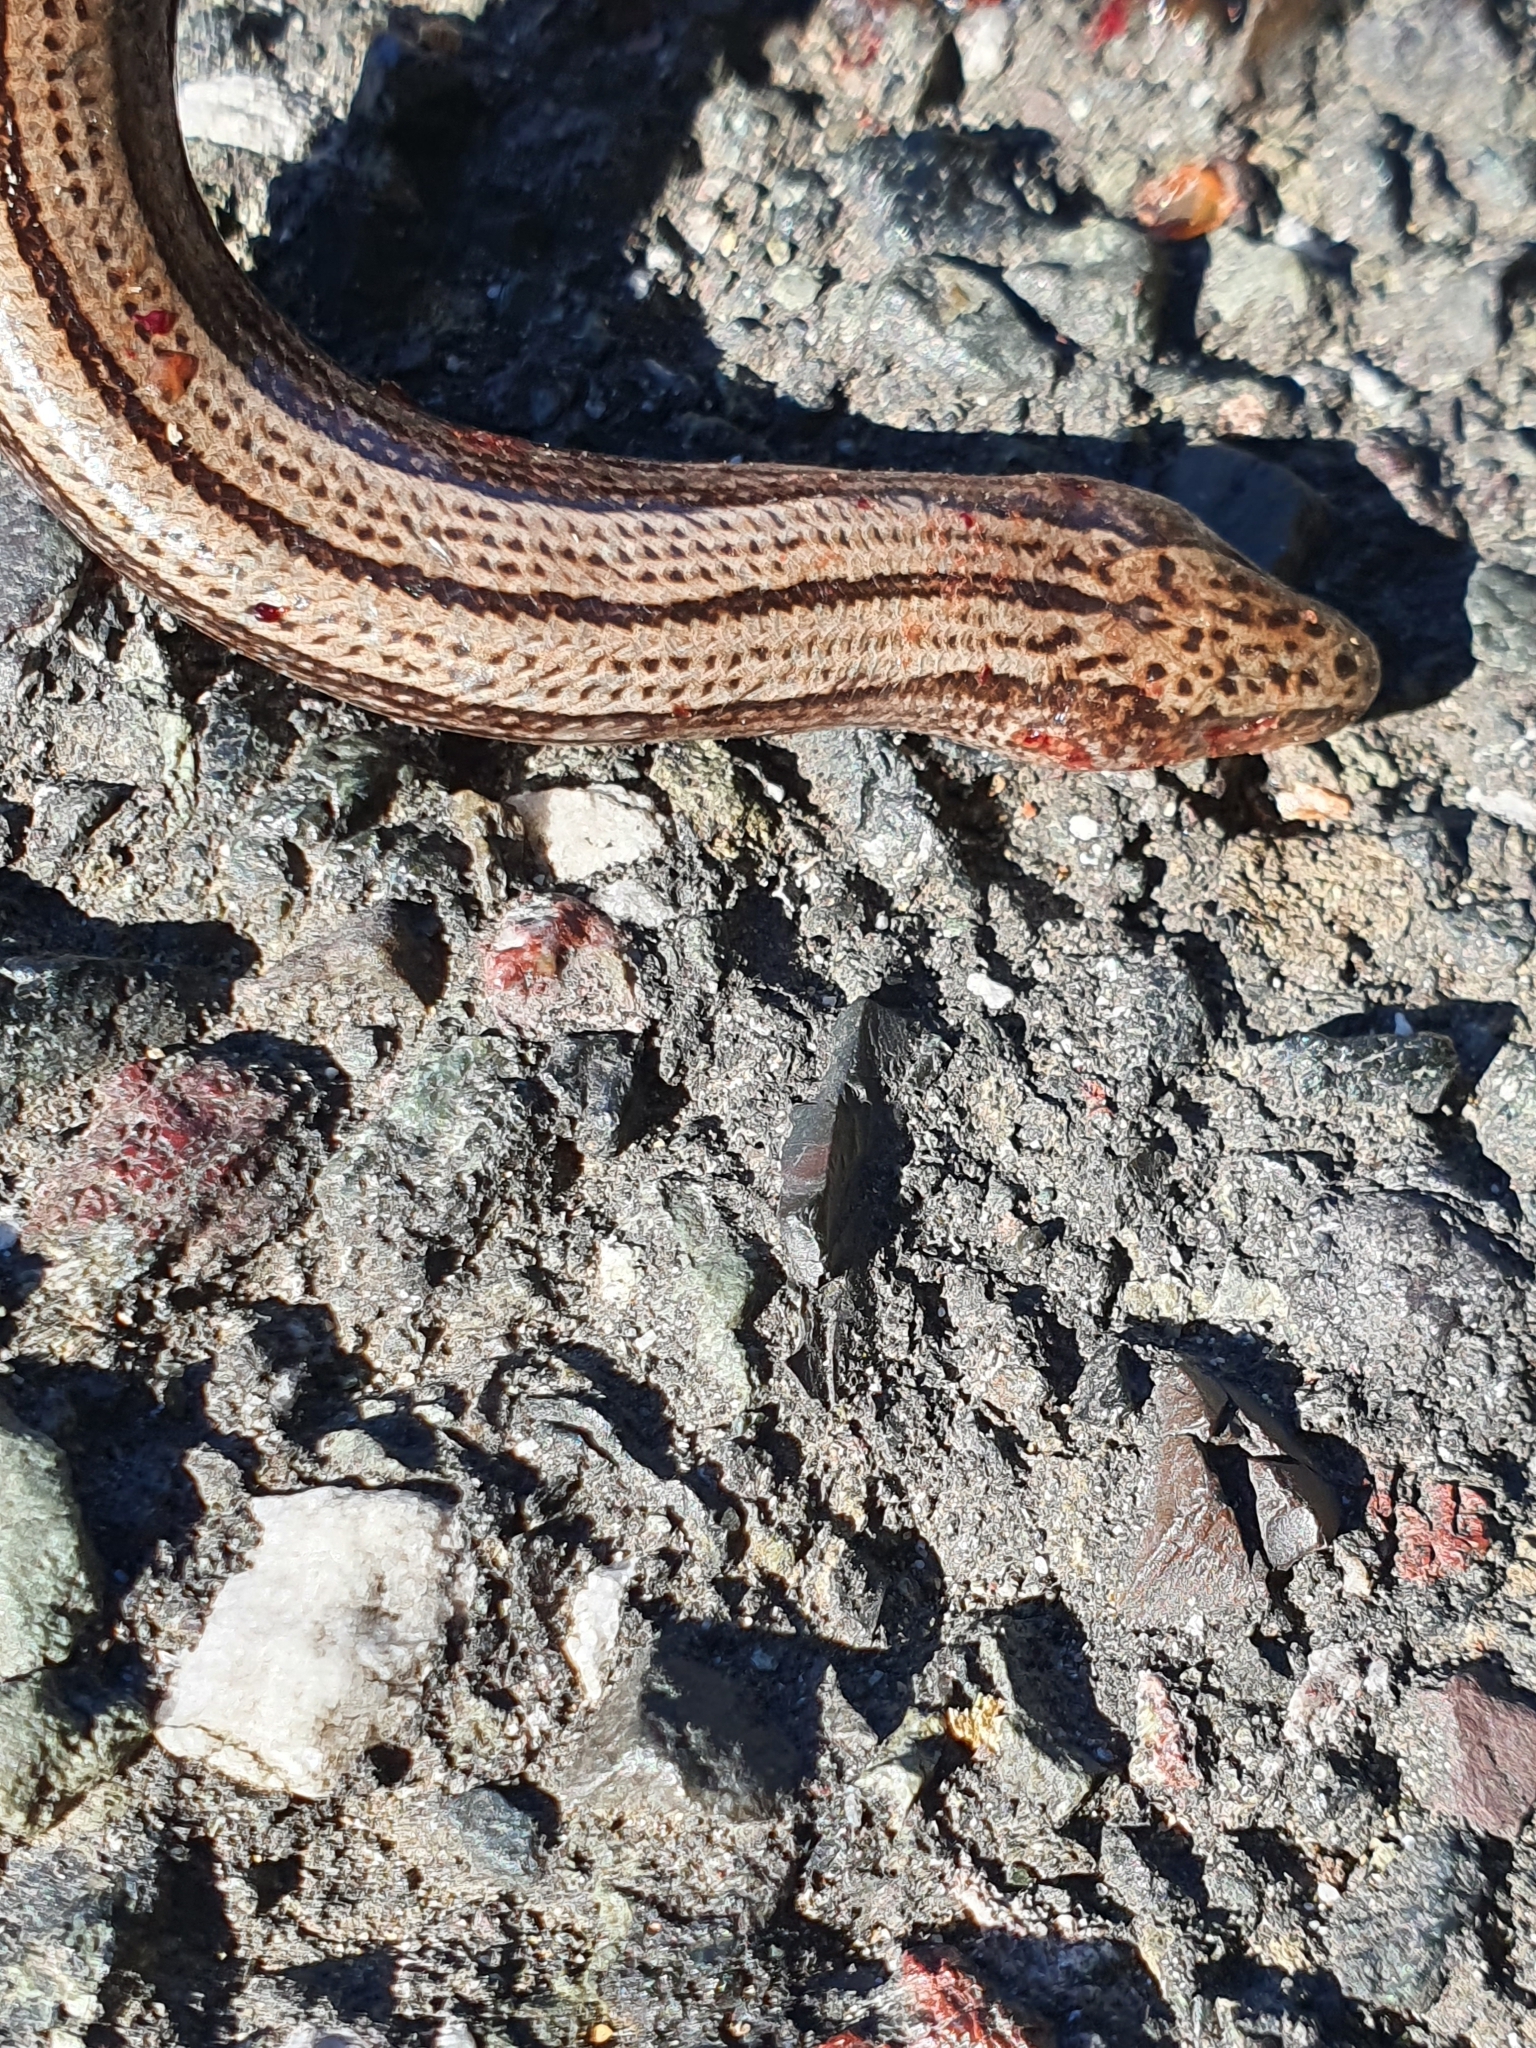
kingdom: Animalia
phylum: Chordata
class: Squamata
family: Anguidae
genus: Anguis
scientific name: Anguis veronensis
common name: Italian slow worm
